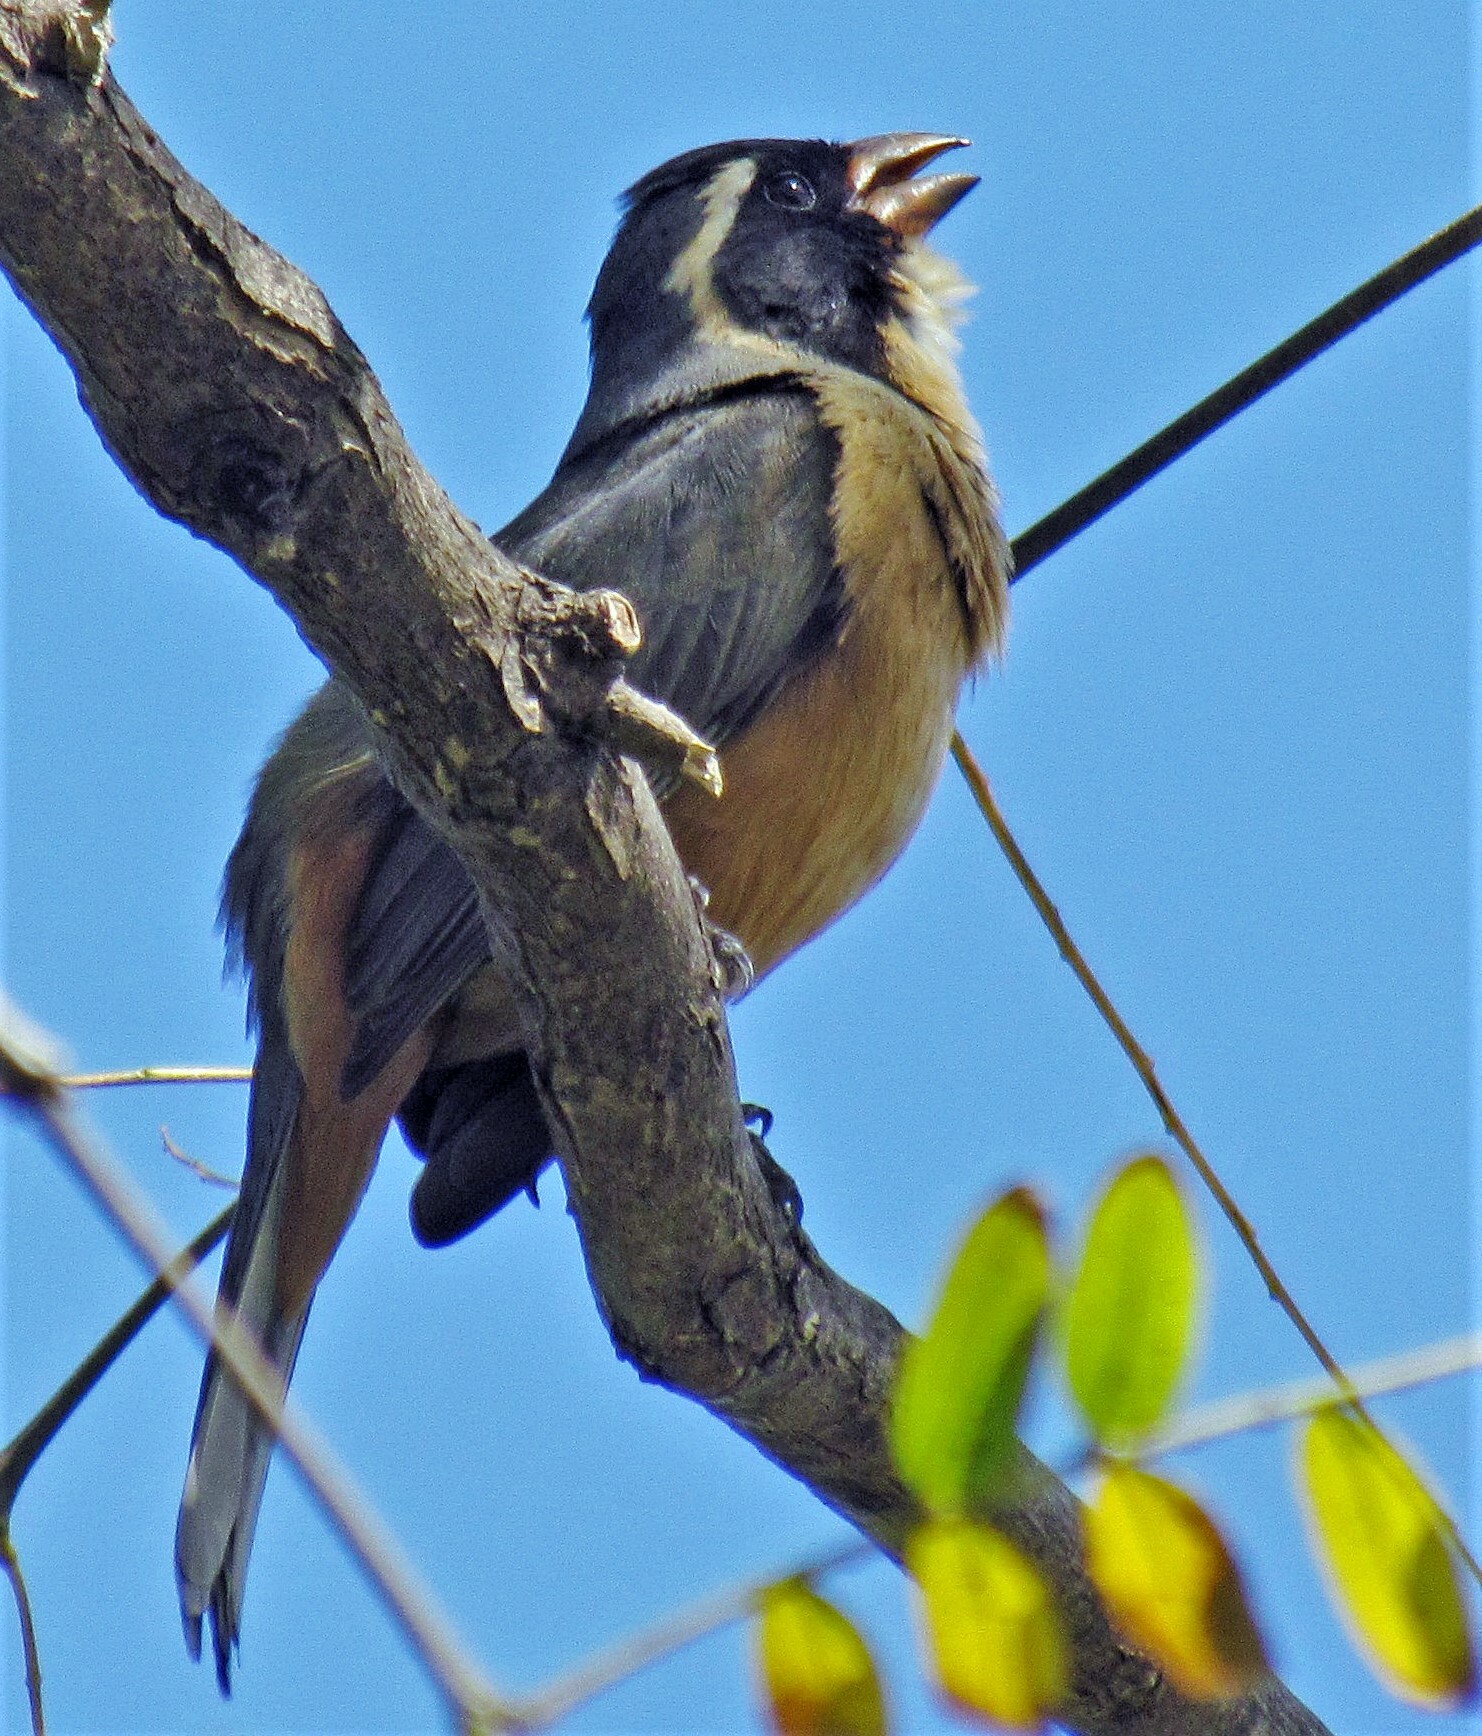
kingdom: Animalia
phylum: Chordata
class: Aves
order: Passeriformes
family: Thraupidae
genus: Saltator
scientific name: Saltator aurantiirostris
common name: Golden-billed saltator
